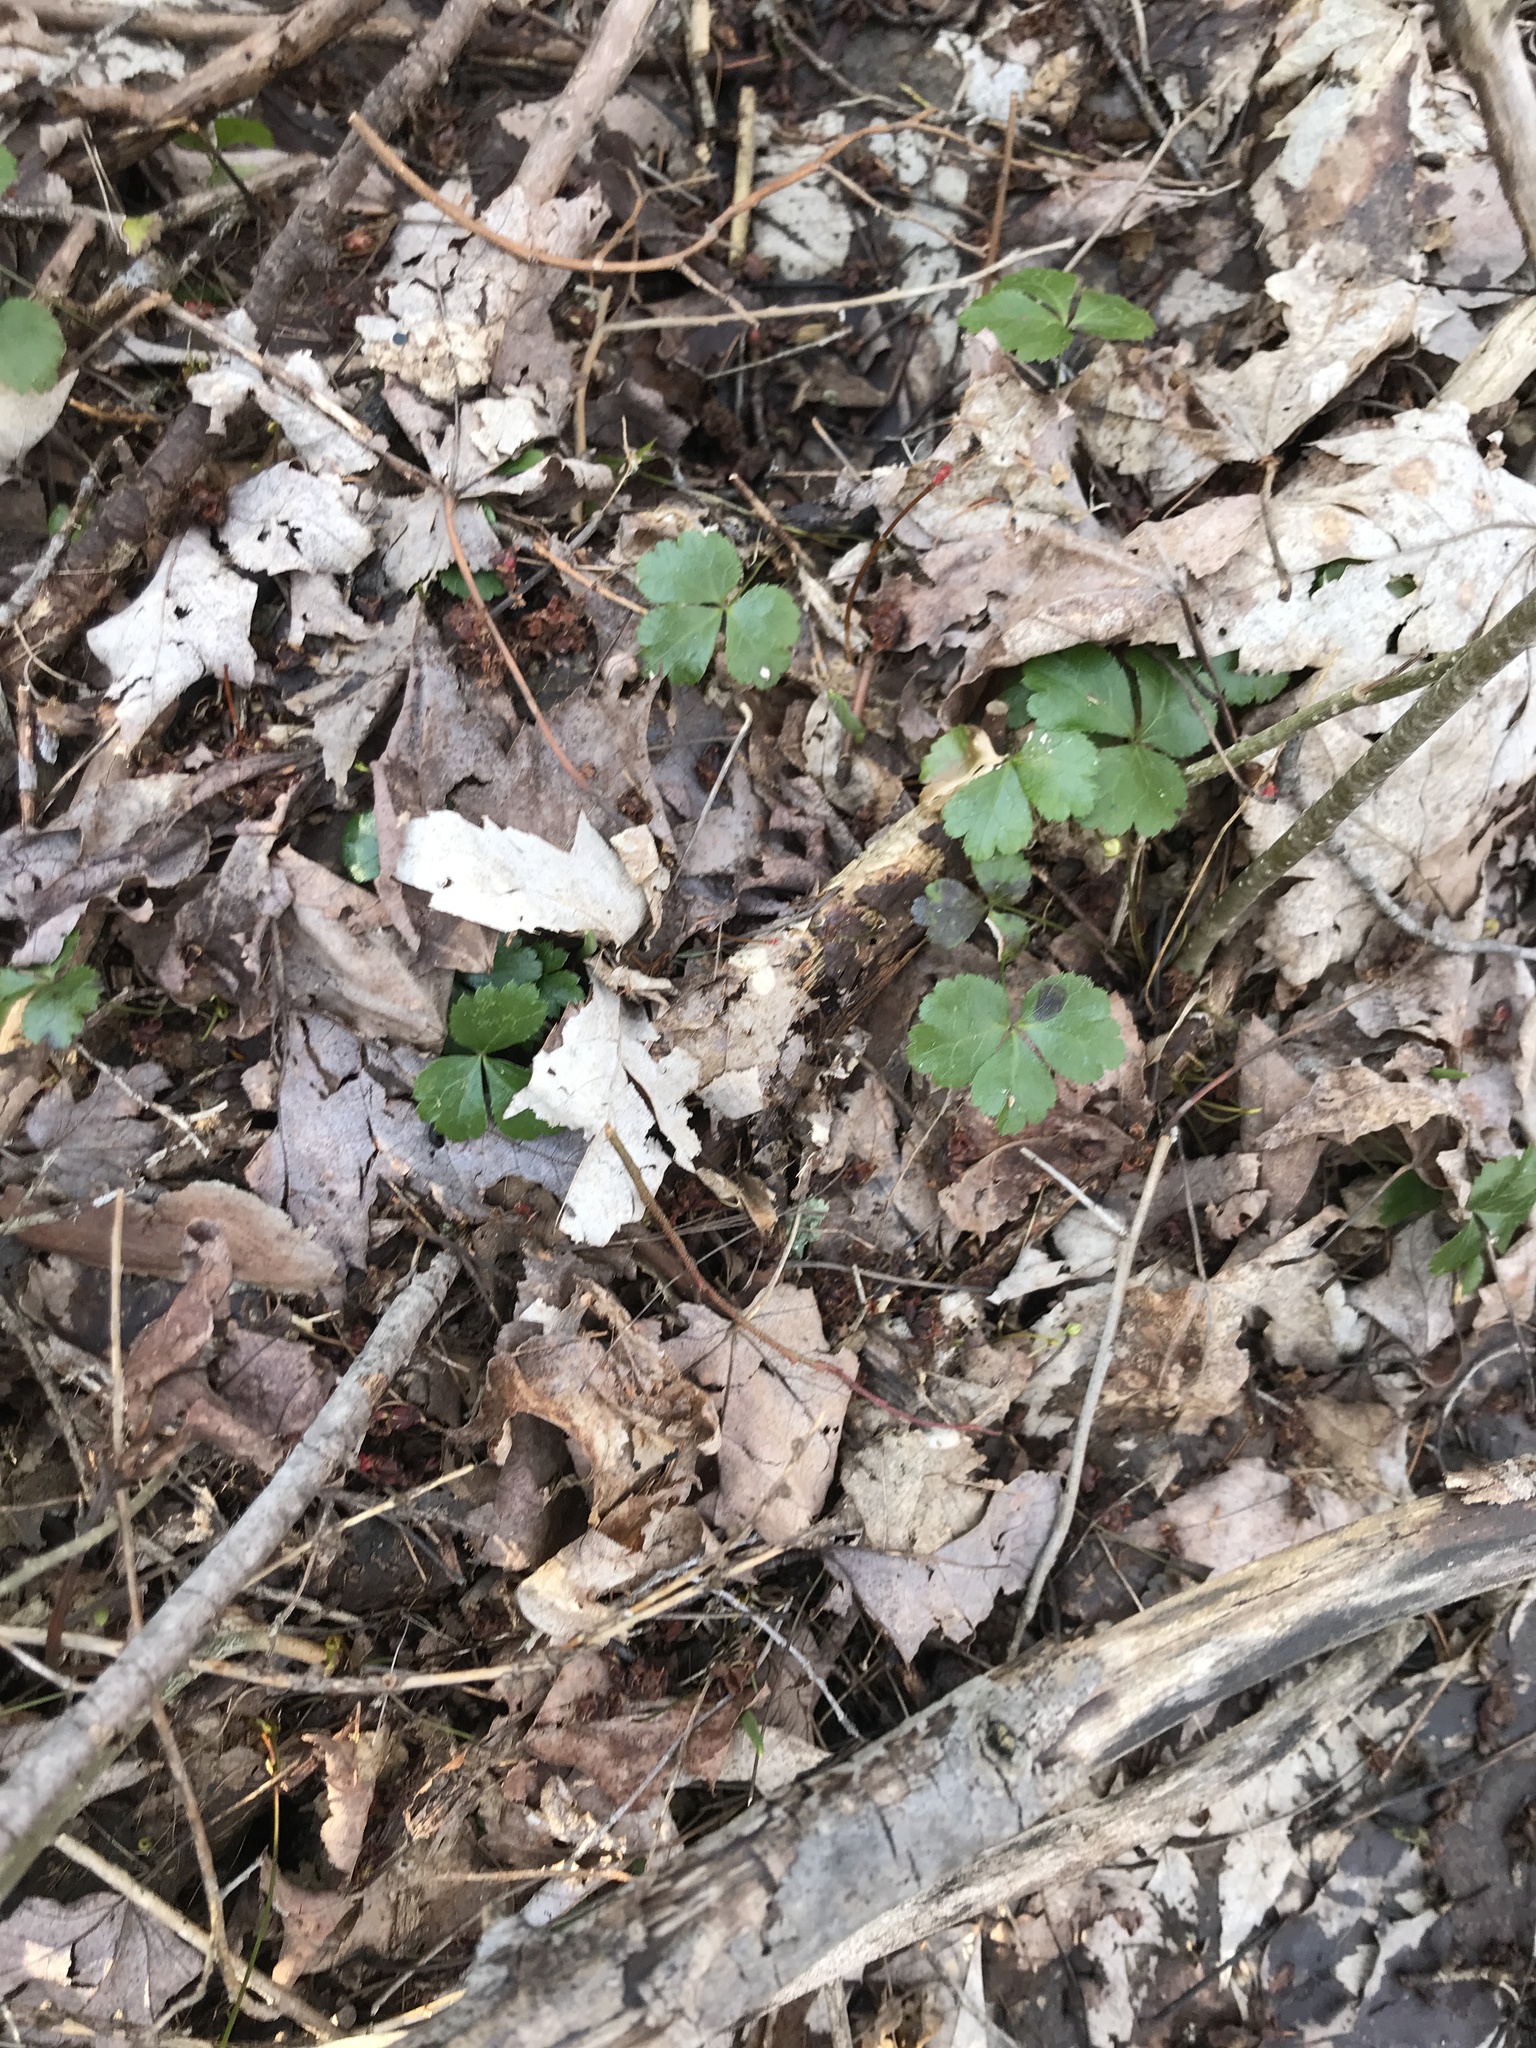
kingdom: Plantae
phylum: Tracheophyta
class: Magnoliopsida
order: Ranunculales
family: Ranunculaceae
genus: Coptis
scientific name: Coptis trifolia
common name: Canker-root
